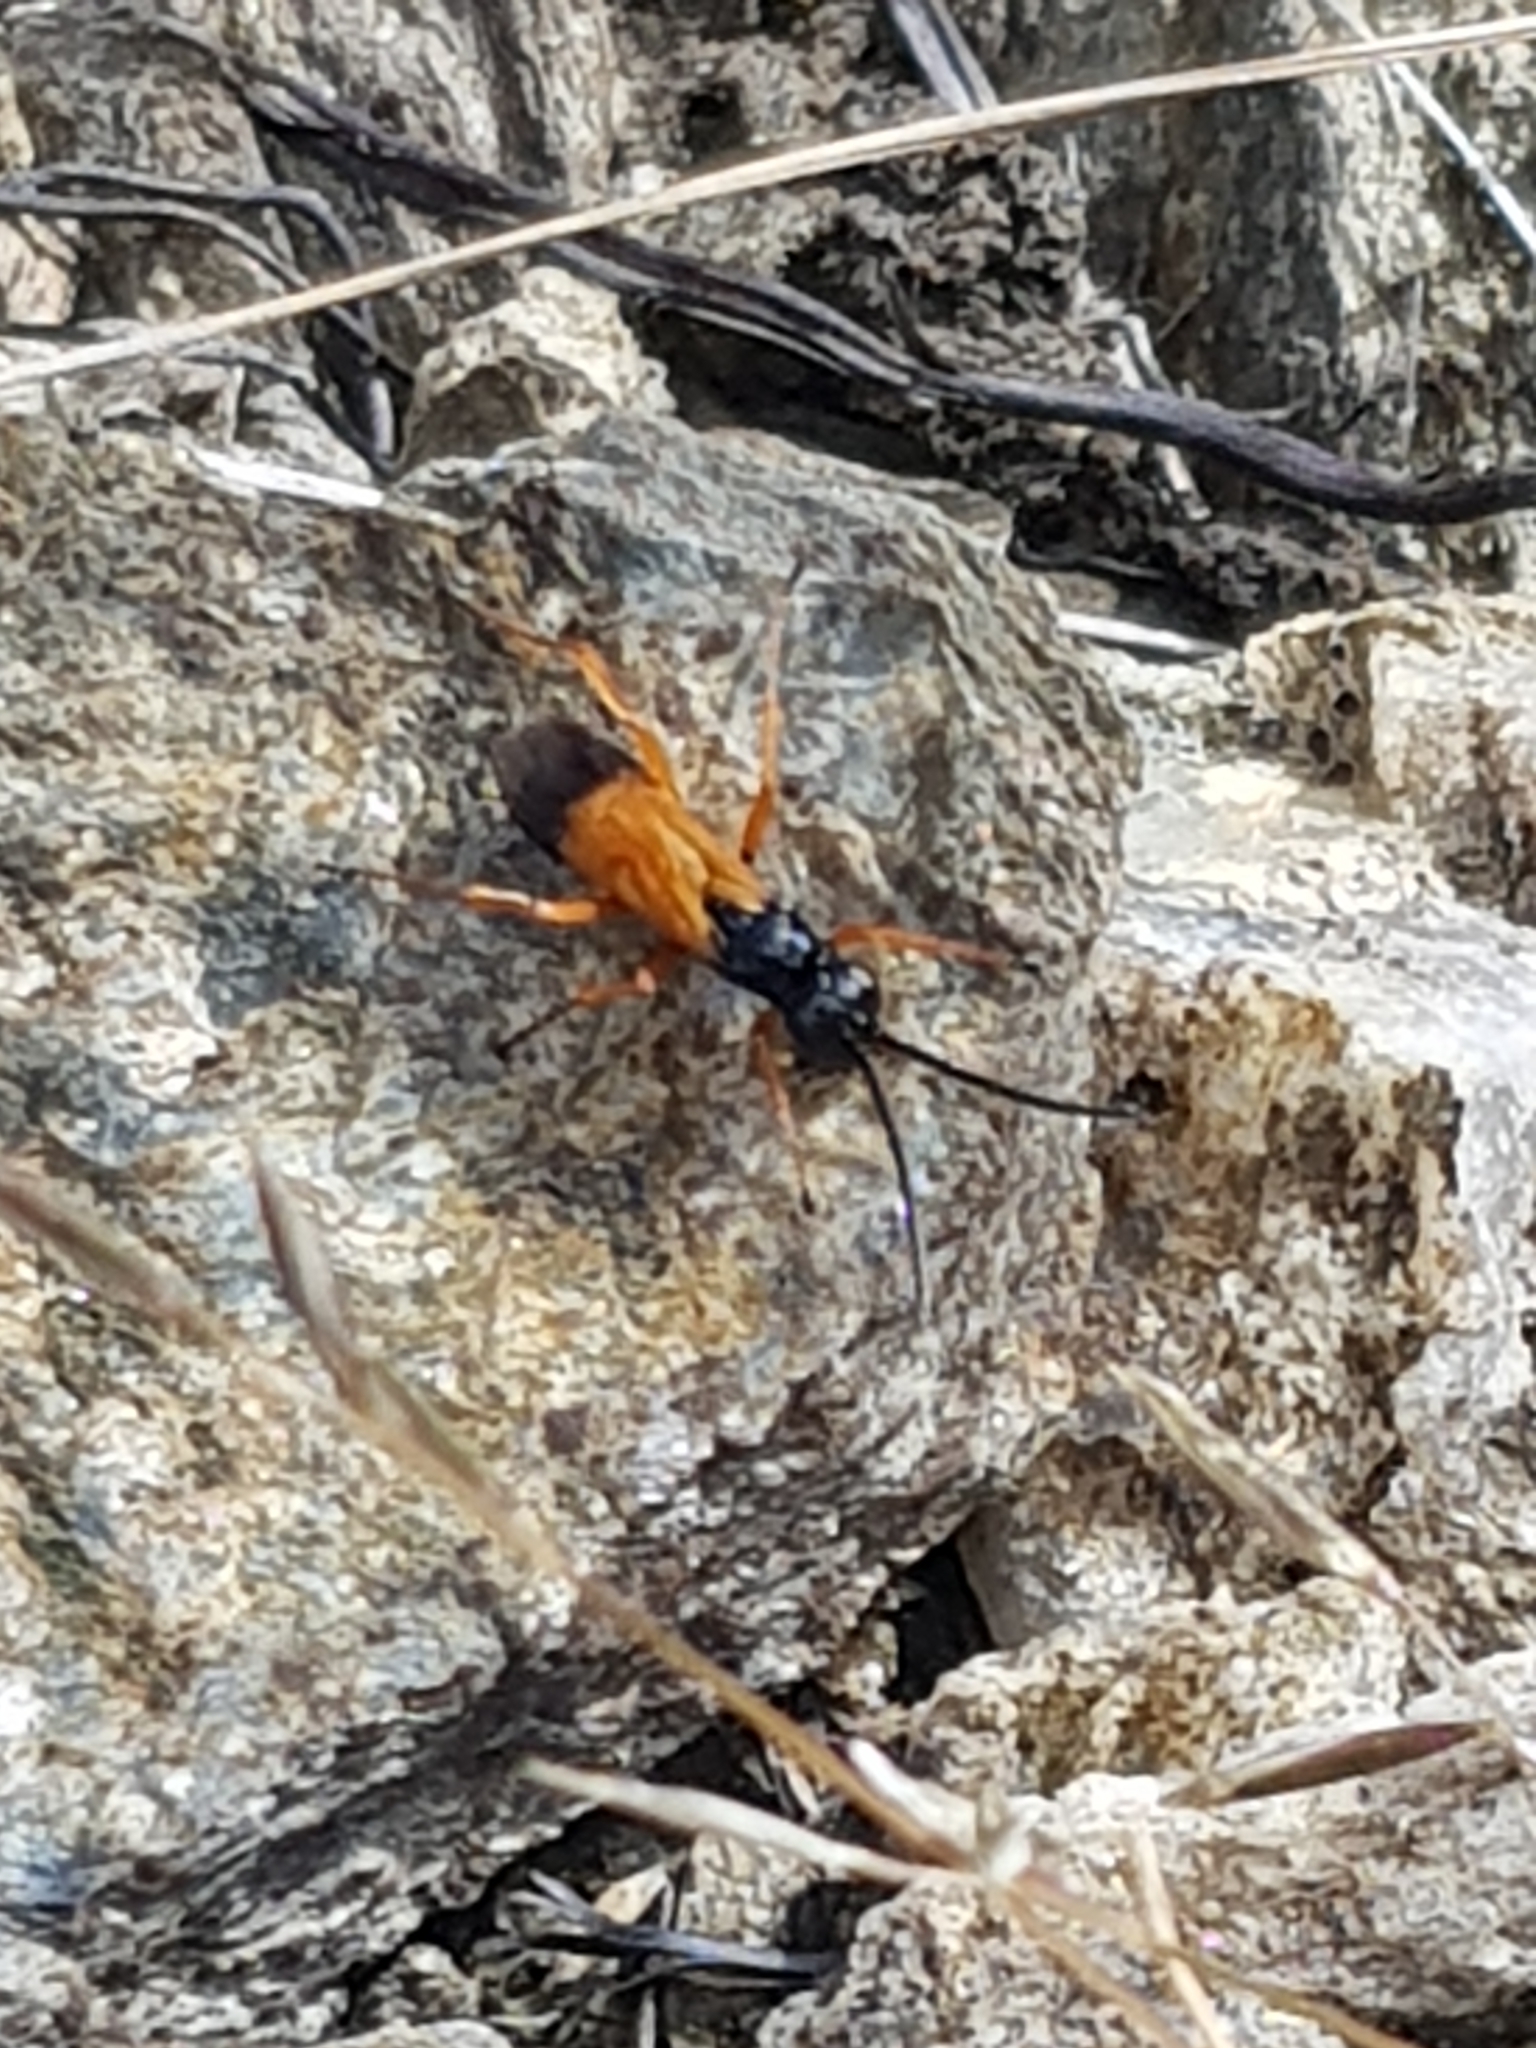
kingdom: Animalia
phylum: Arthropoda
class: Insecta
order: Hymenoptera
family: Pompilidae
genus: Priocnemis
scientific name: Priocnemis conformis
